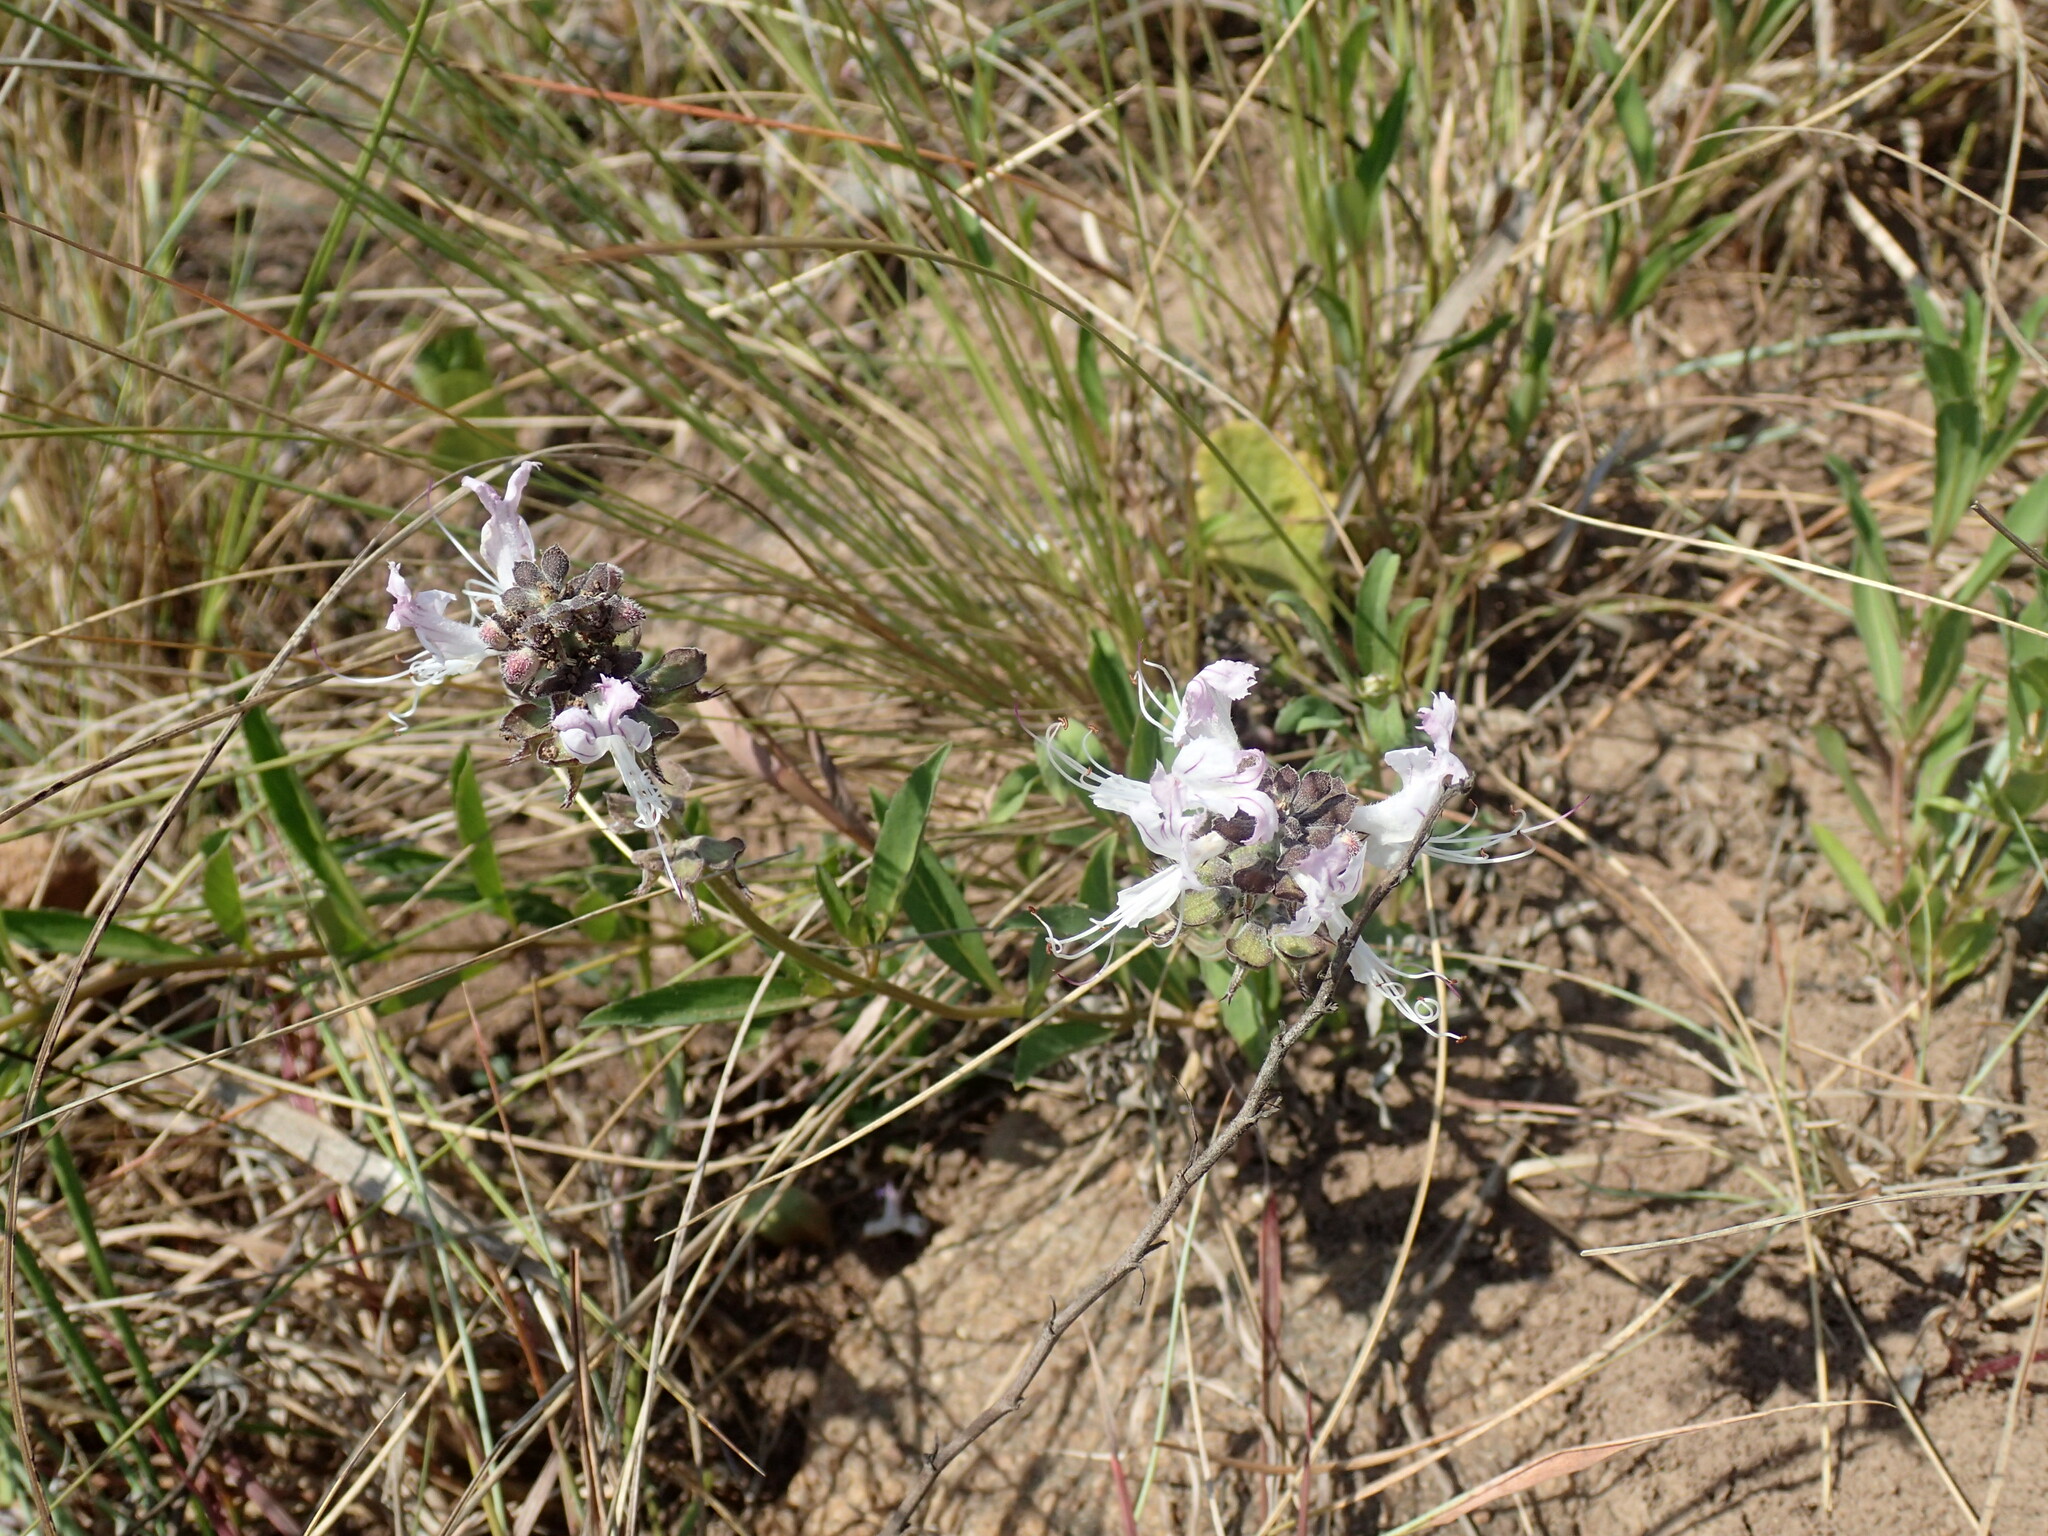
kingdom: Plantae
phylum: Tracheophyta
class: Magnoliopsida
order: Lamiales
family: Lamiaceae
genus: Ocimum
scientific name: Ocimum obovatum
